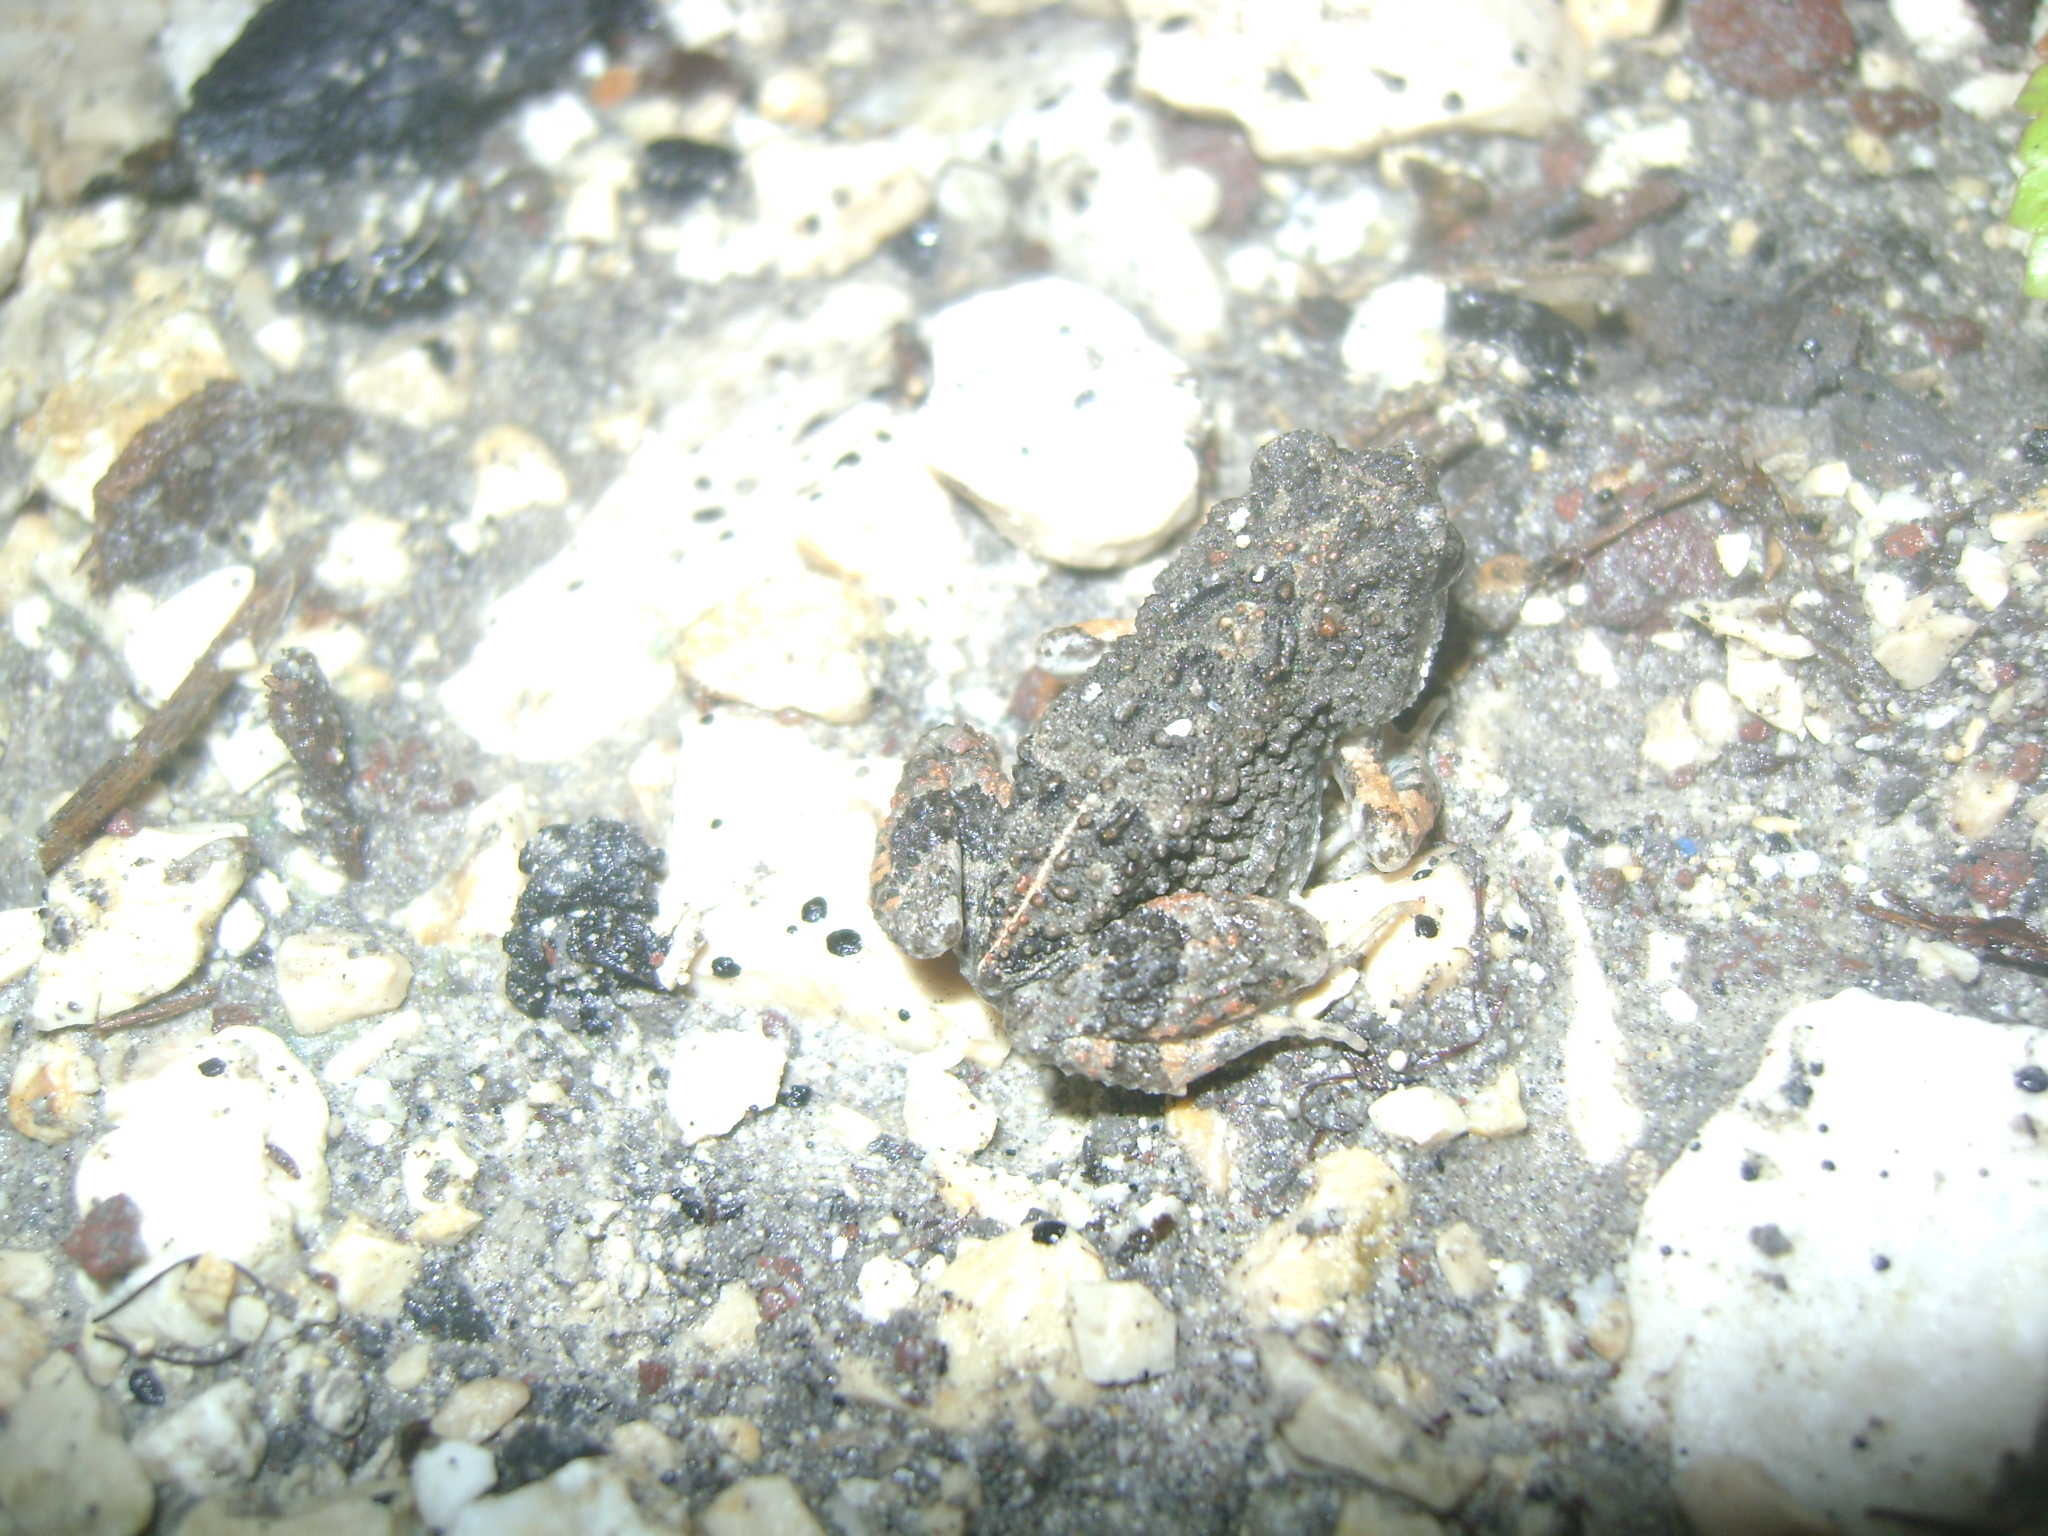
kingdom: Animalia
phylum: Chordata
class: Amphibia
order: Anura
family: Leptodactylidae
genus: Engystomops
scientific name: Engystomops pustulosus
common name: Tungara frog
